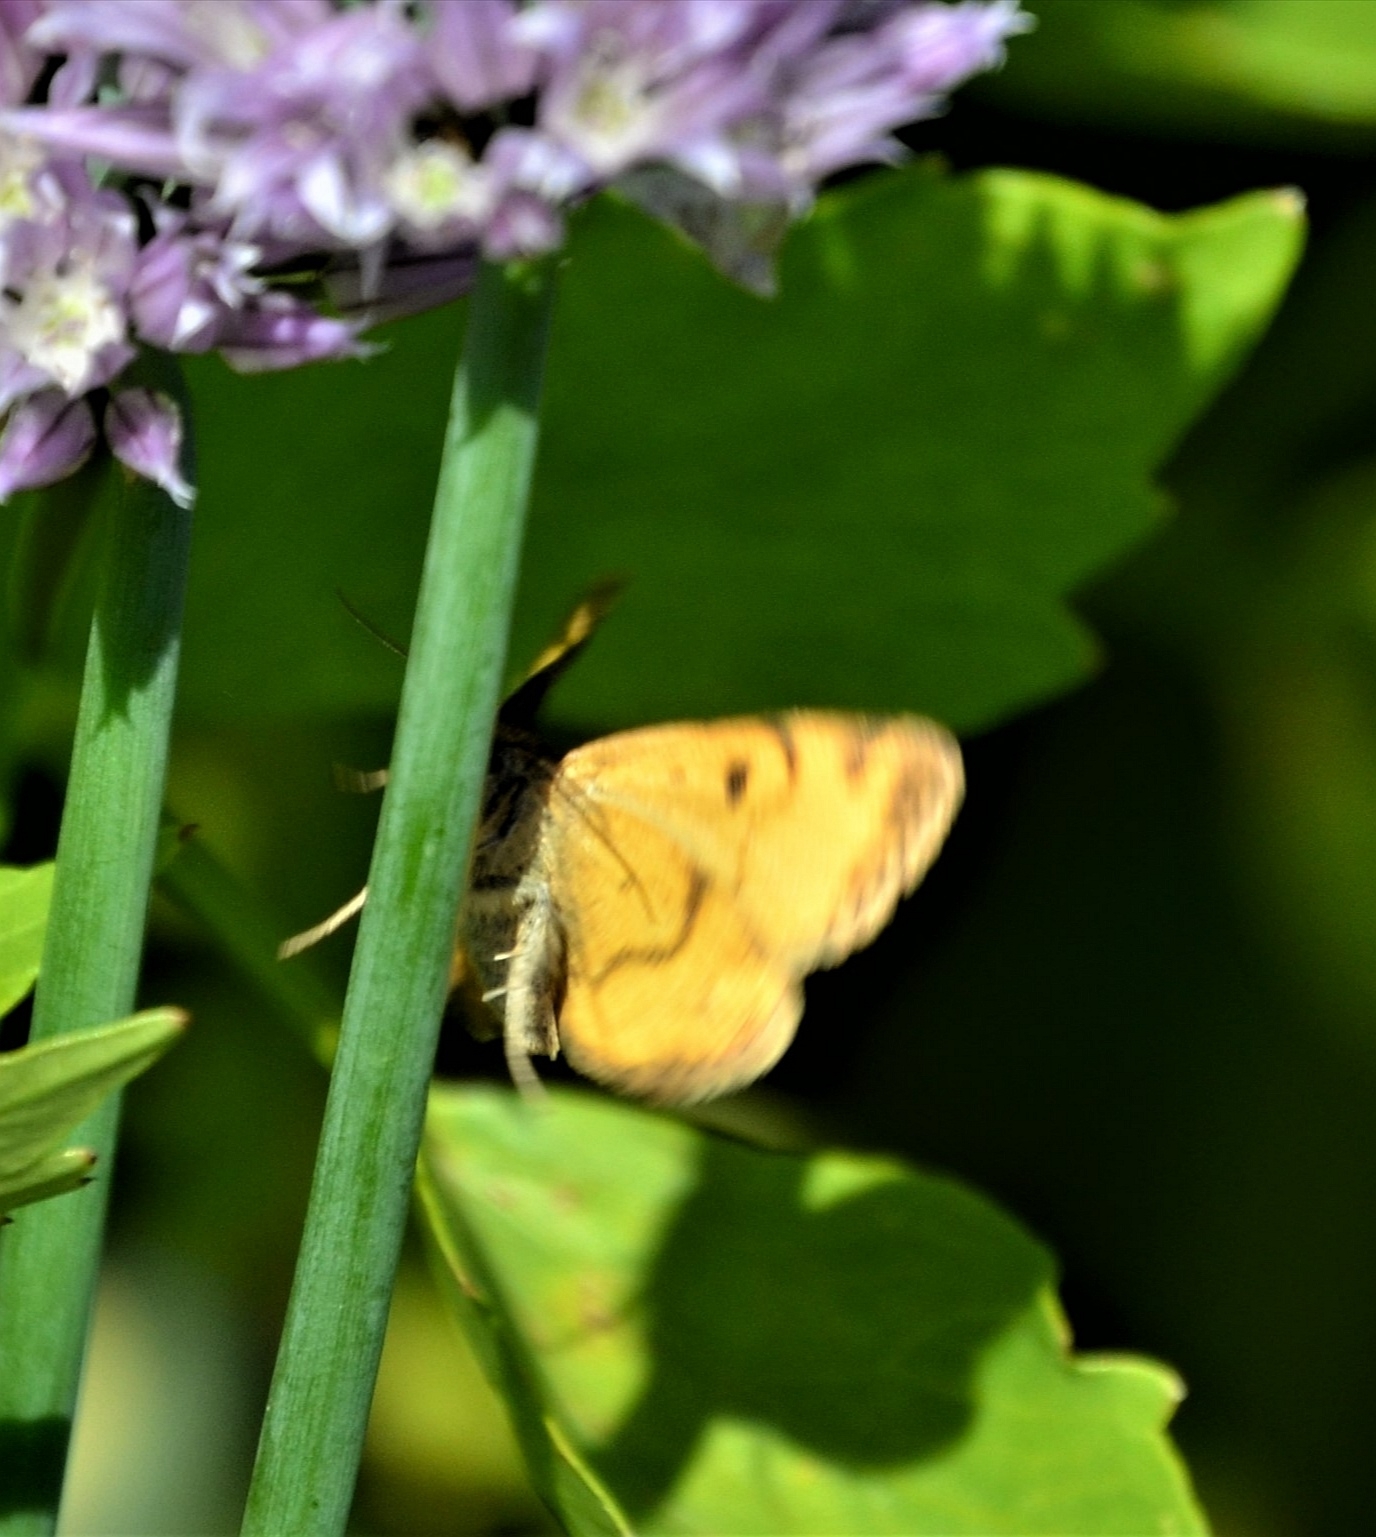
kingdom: Animalia
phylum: Arthropoda
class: Insecta
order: Lepidoptera
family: Erebidae
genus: Euclidia
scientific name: Euclidia glyphica
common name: Burnet companion
